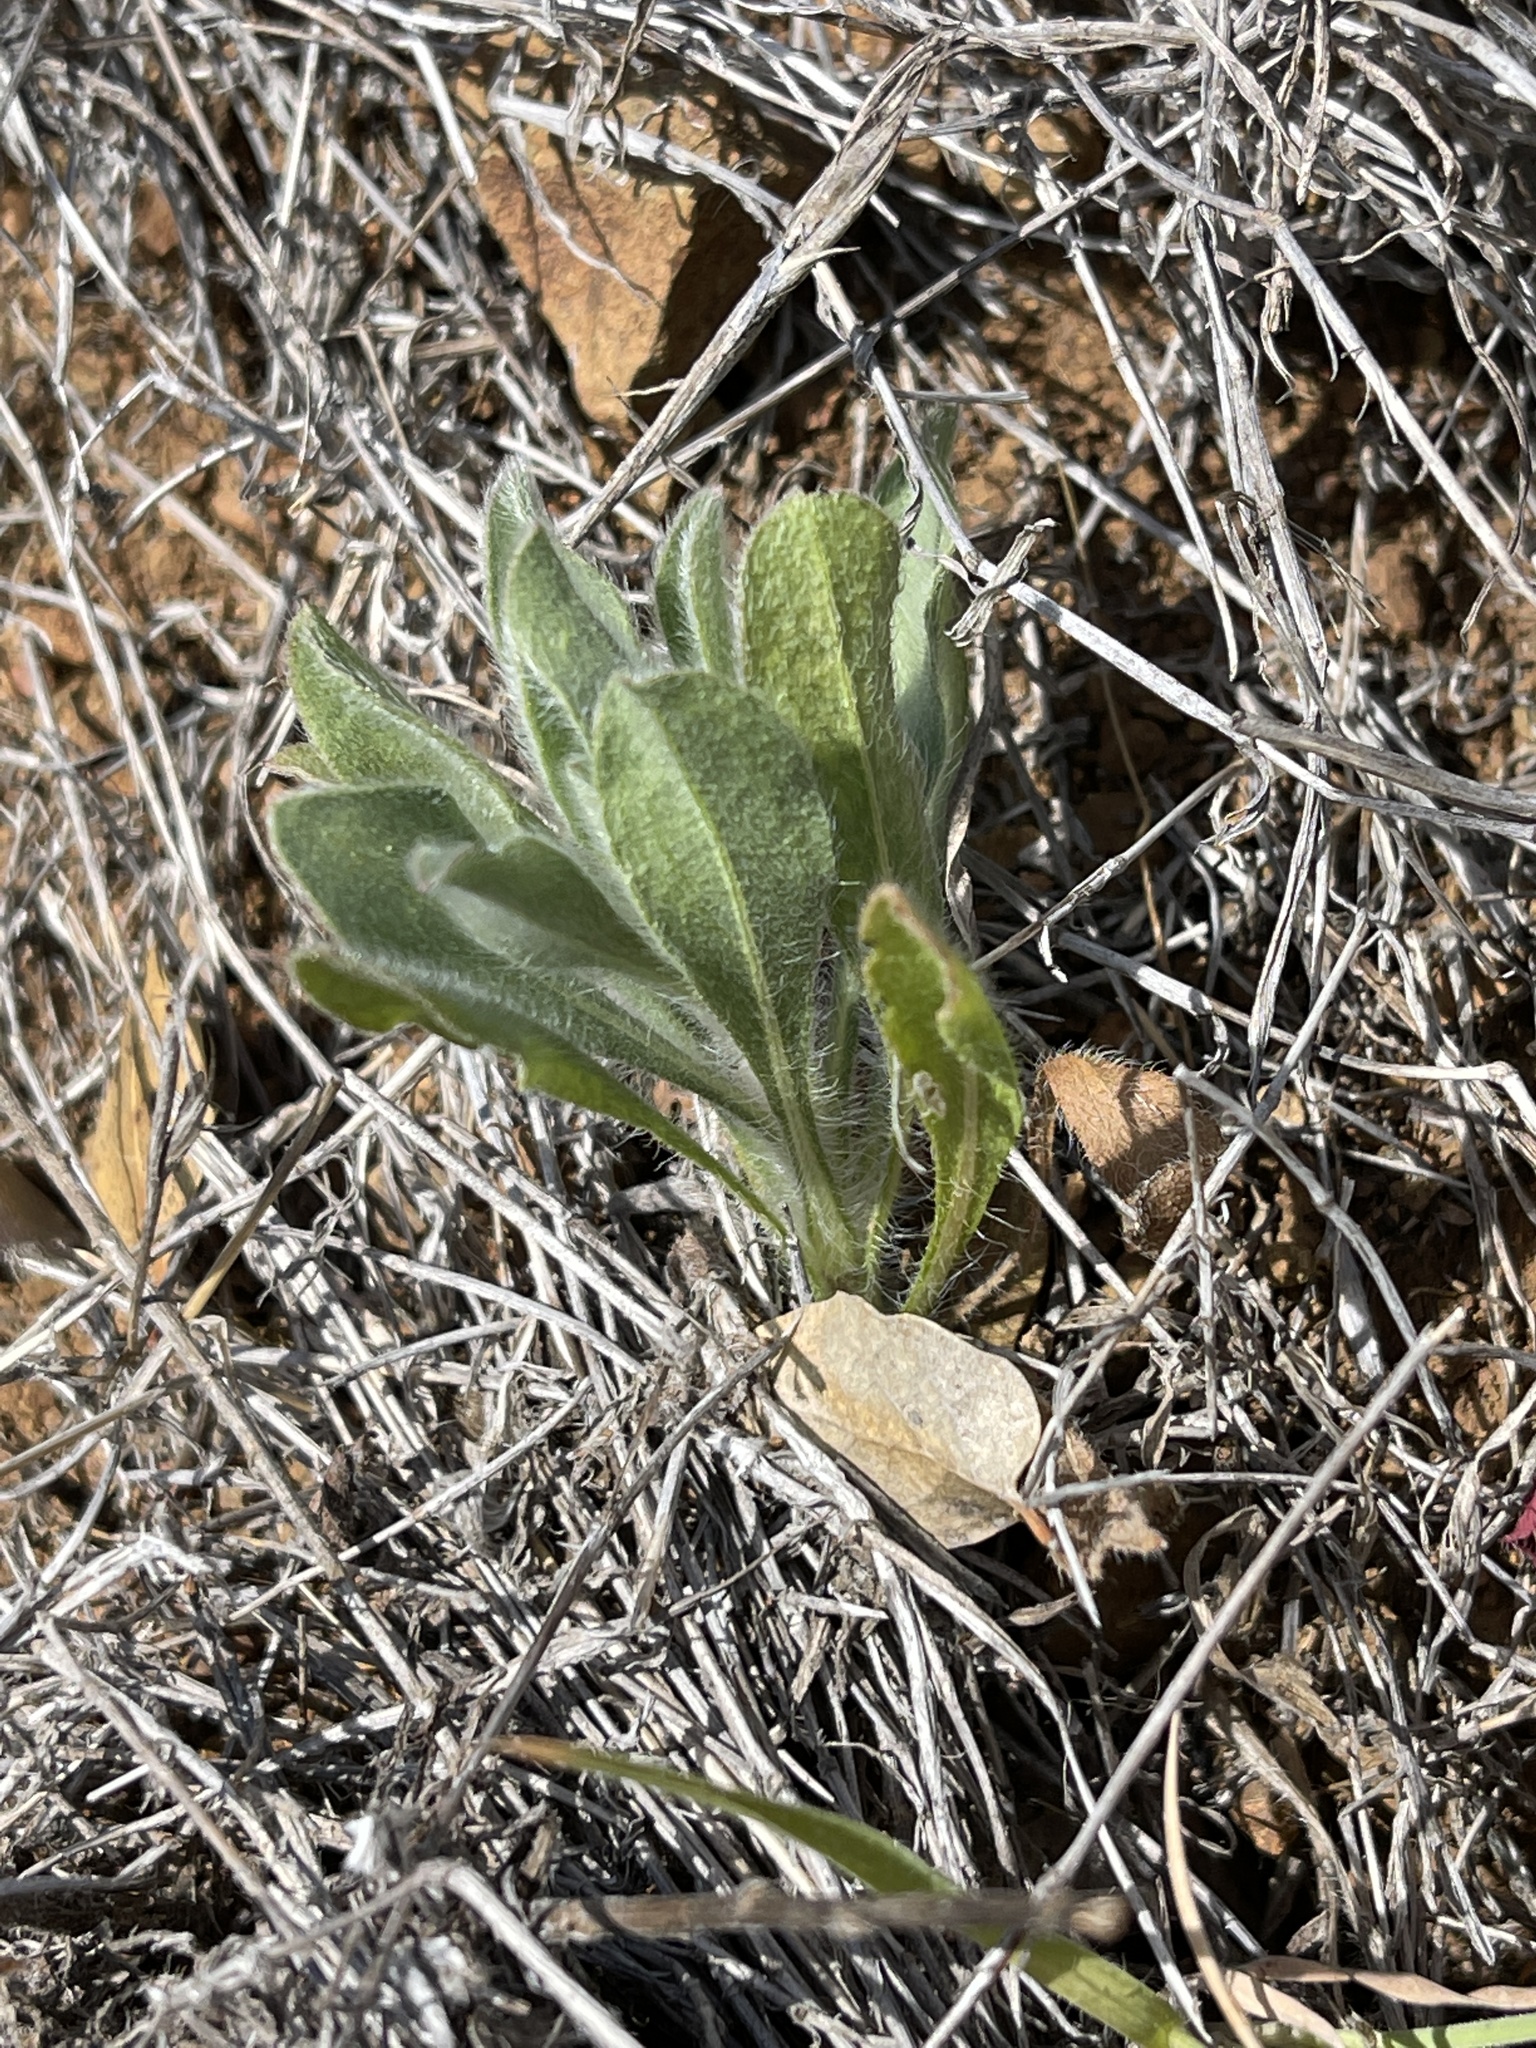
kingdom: Plantae
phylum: Tracheophyta
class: Magnoliopsida
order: Asterales
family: Asteraceae
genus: Heterotheca
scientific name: Heterotheca sessiliflora
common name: Sessile-flower golden-aster
